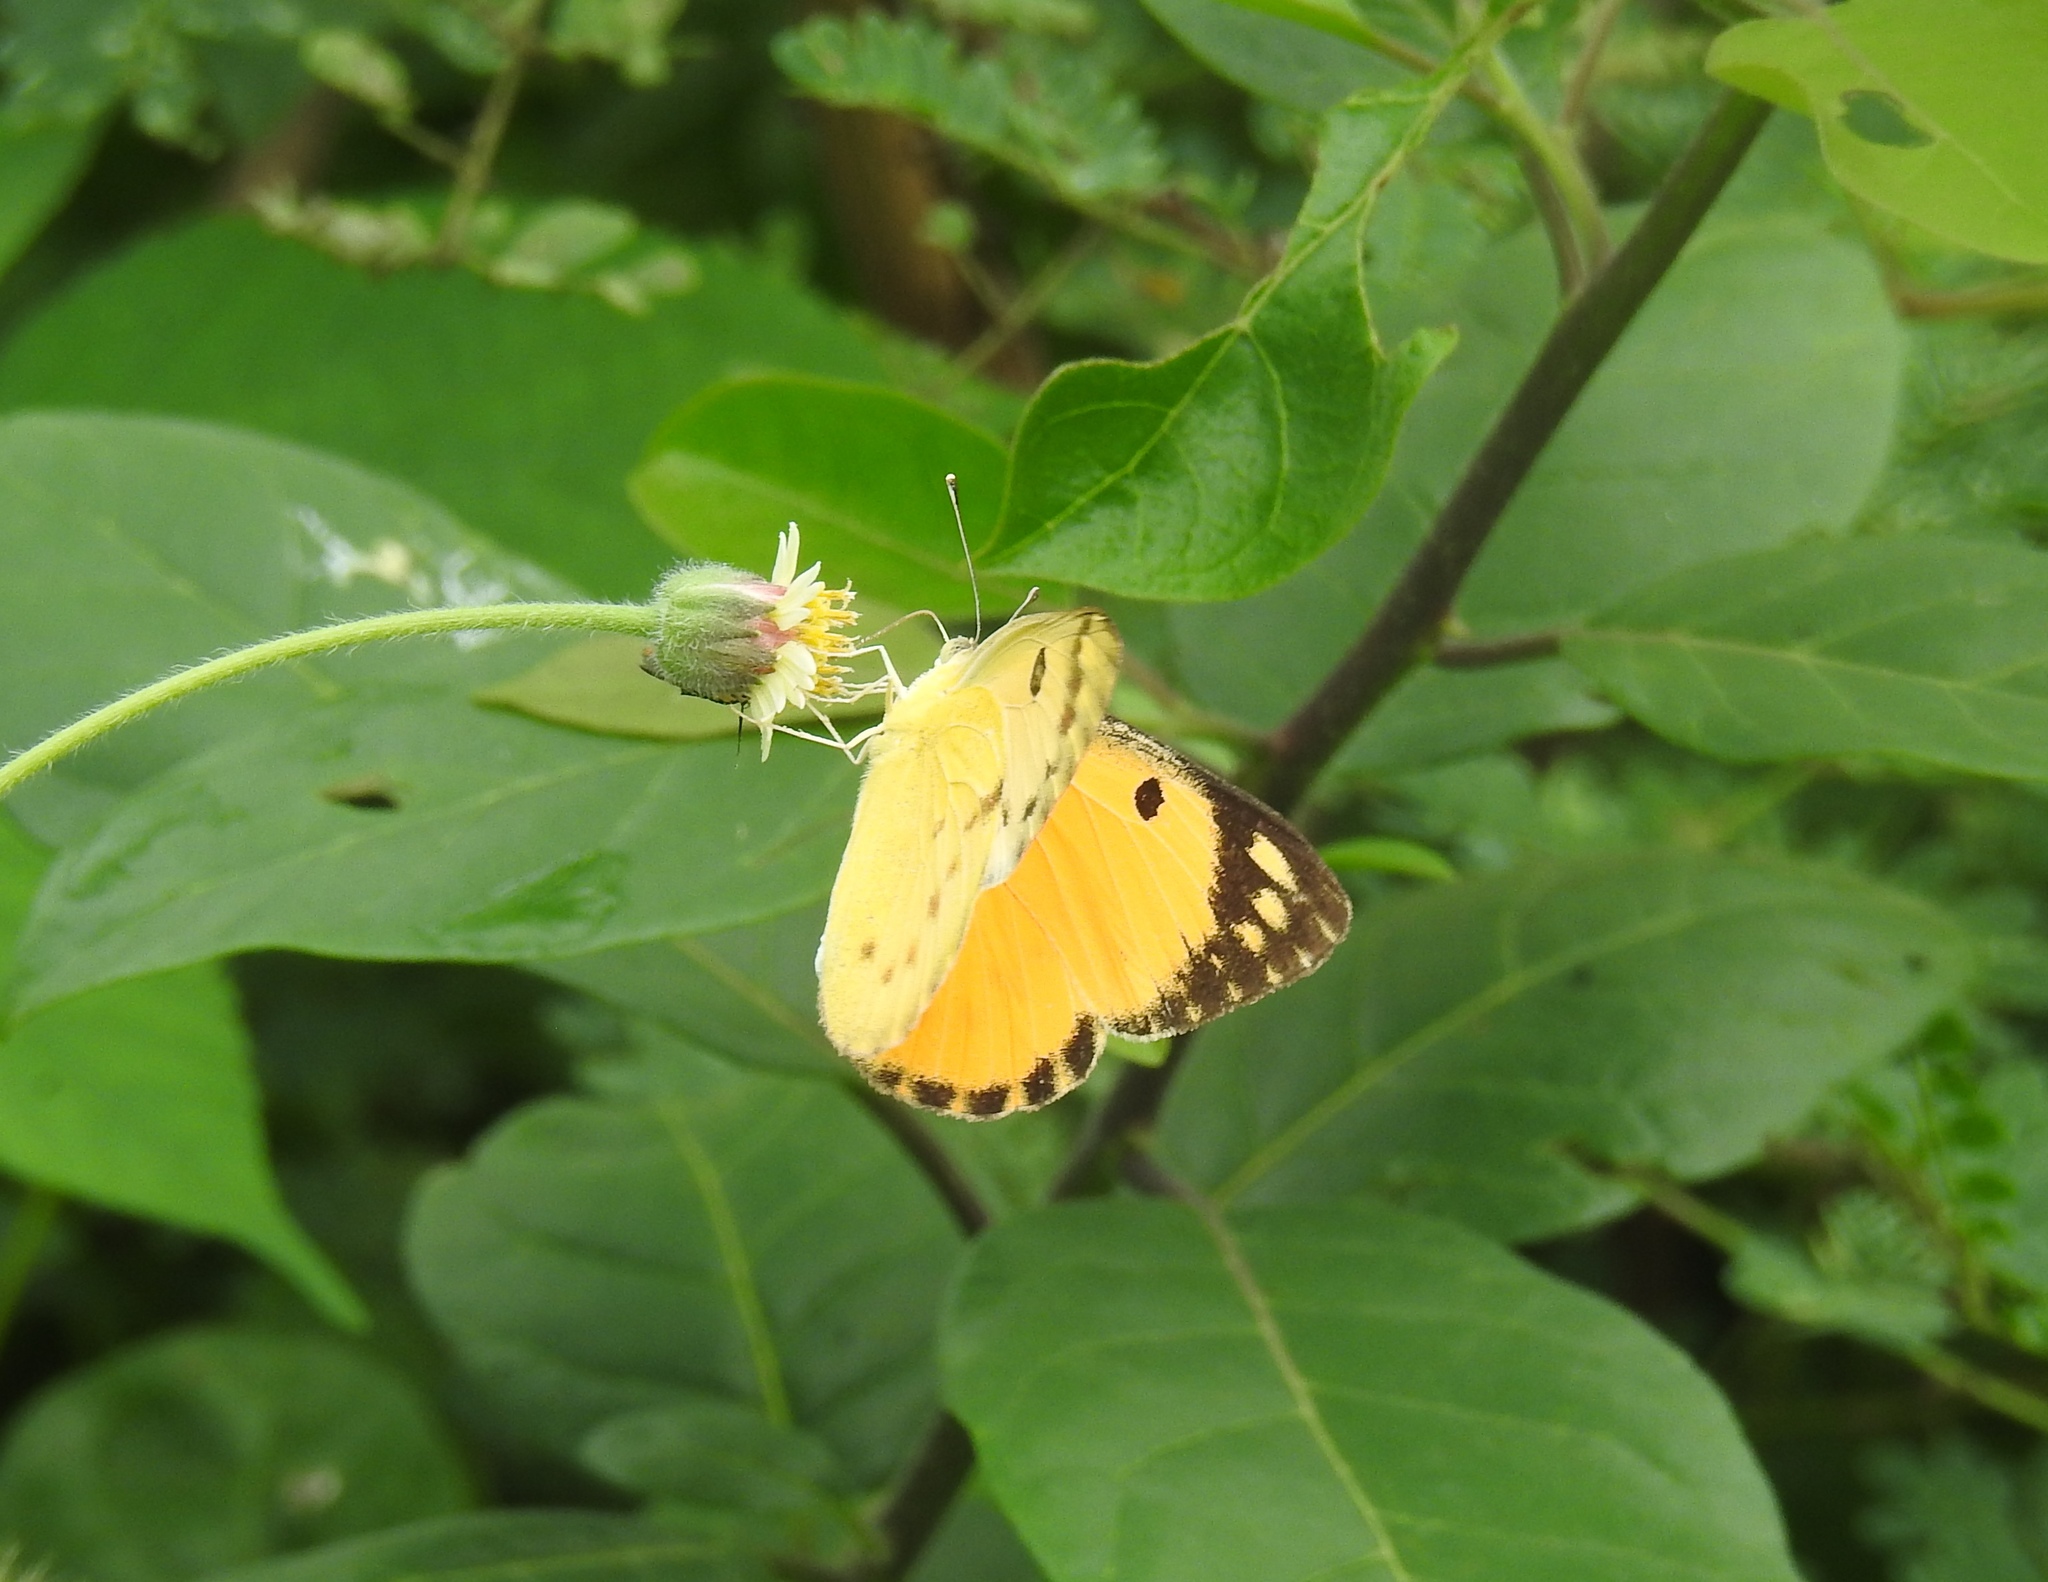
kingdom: Animalia
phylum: Arthropoda
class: Insecta
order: Lepidoptera
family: Pieridae
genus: Colotis
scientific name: Colotis fausta
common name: Large salmon arab
